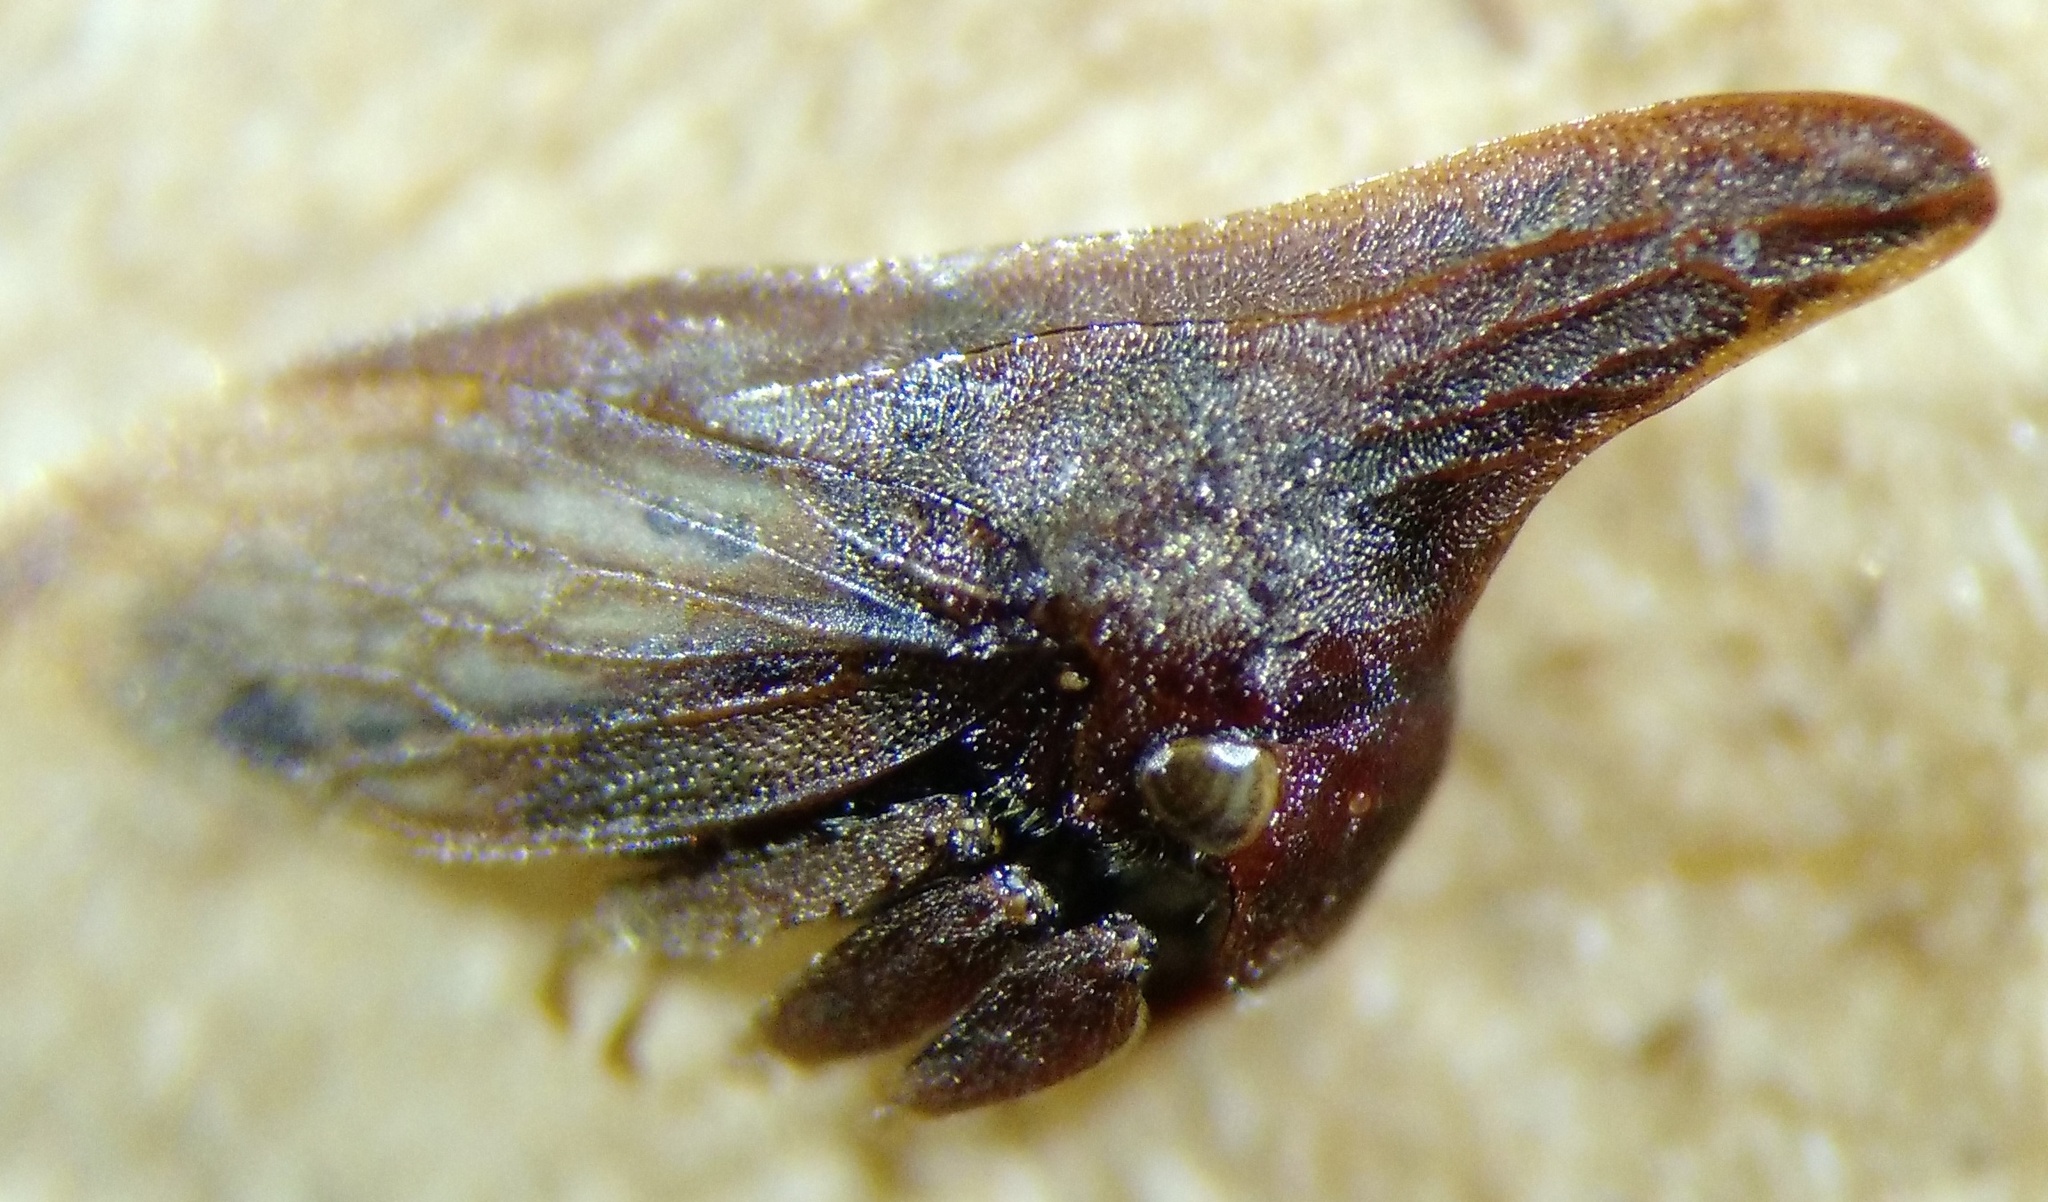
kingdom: Animalia
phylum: Arthropoda
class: Insecta
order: Hemiptera
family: Membracidae
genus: Enchenopa
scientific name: Enchenopa latipes
